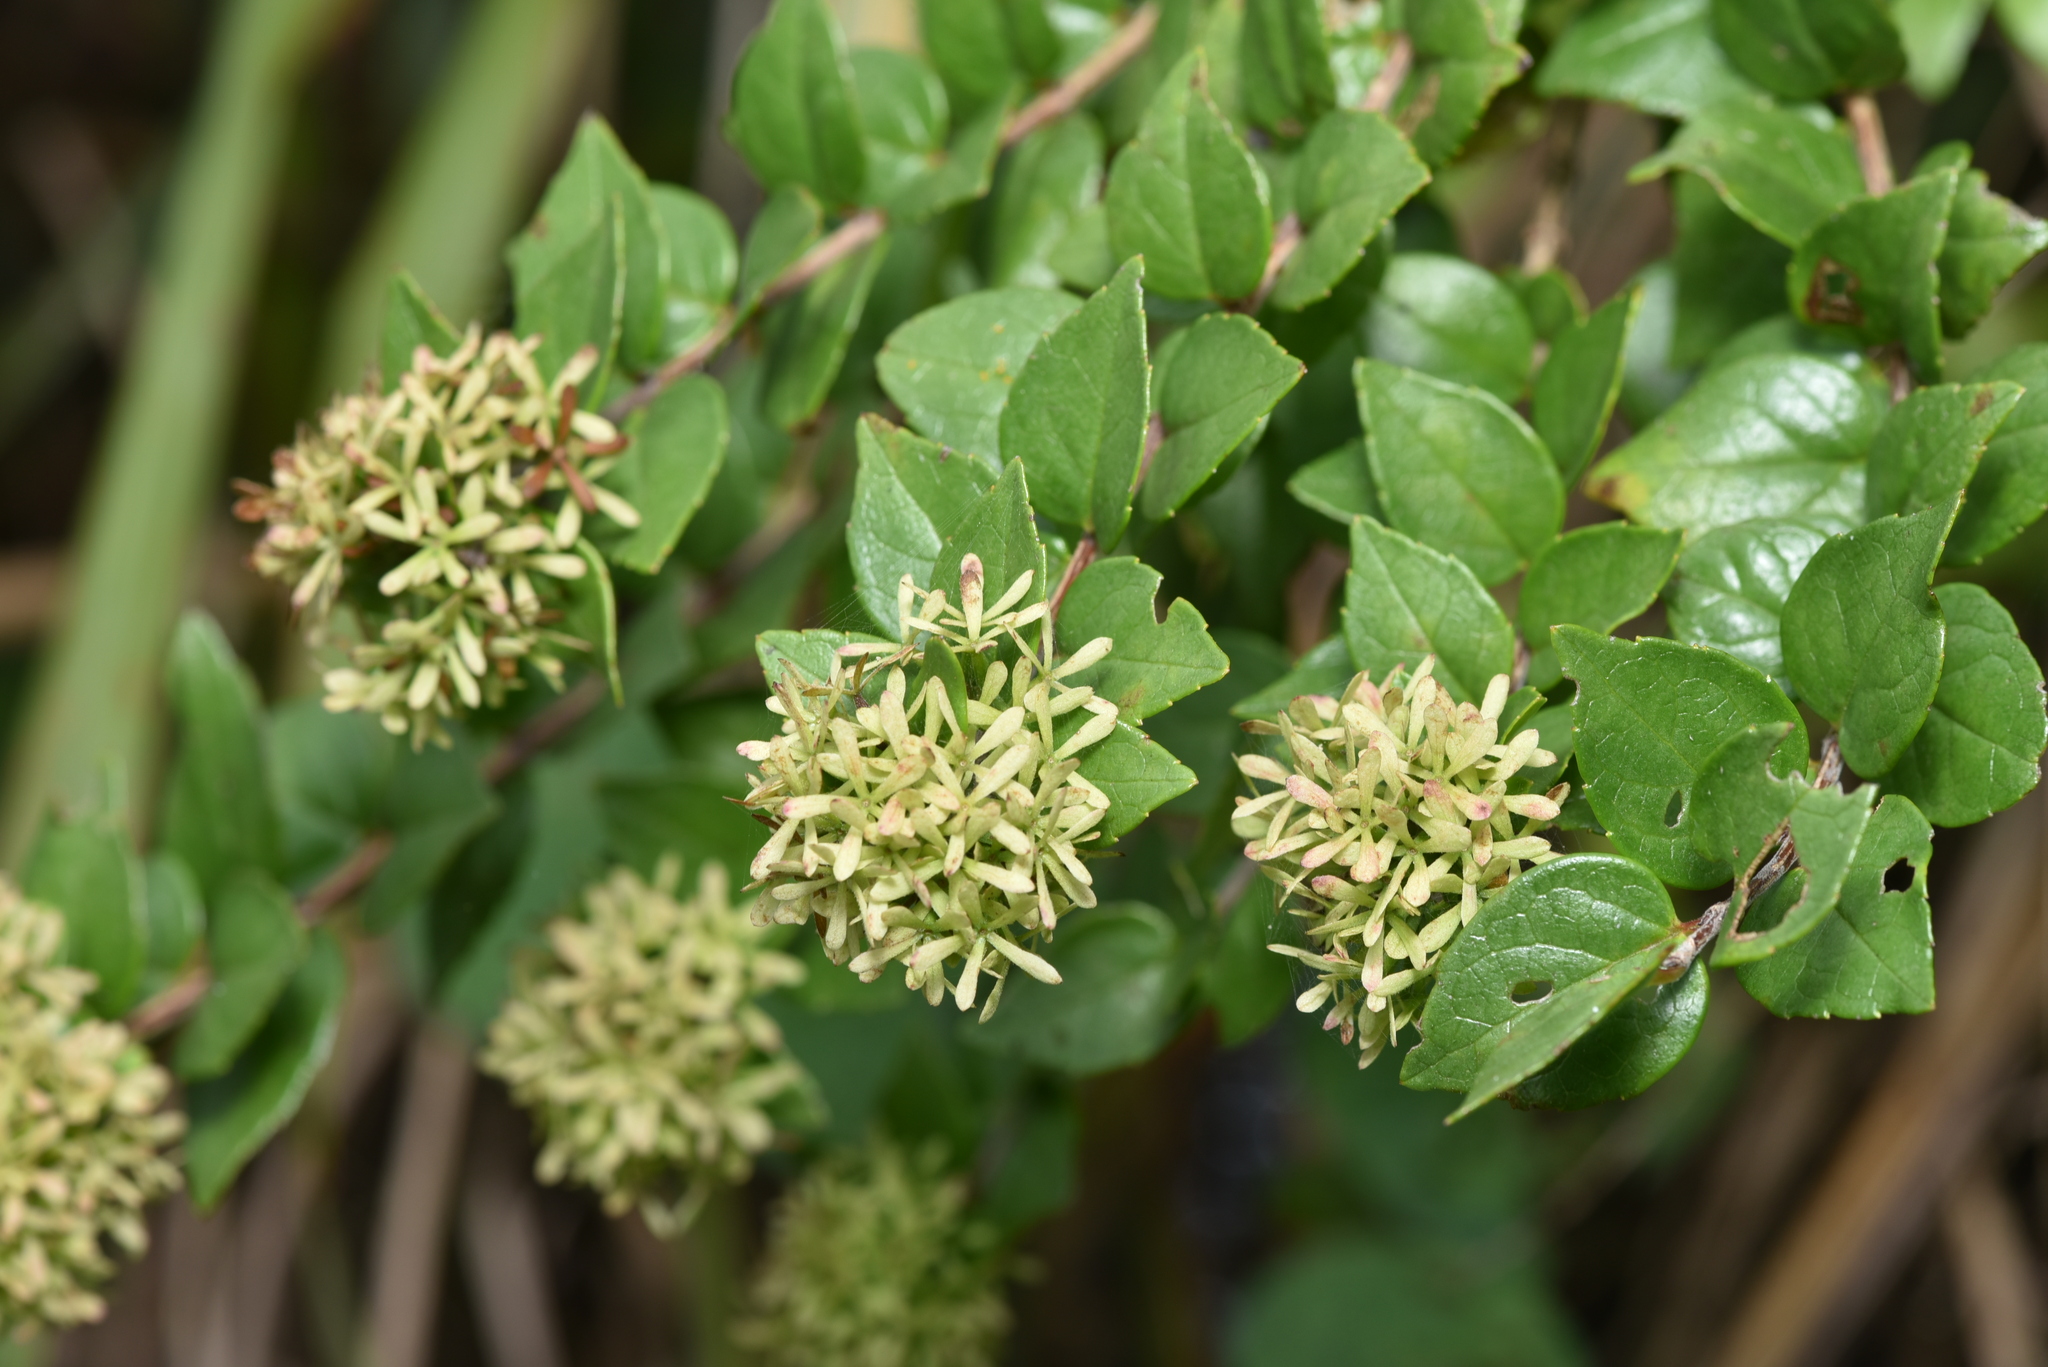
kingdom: Plantae
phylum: Tracheophyta
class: Magnoliopsida
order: Dipsacales
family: Caprifoliaceae
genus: Abelia
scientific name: Abelia chinensis
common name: Chinese abelia
